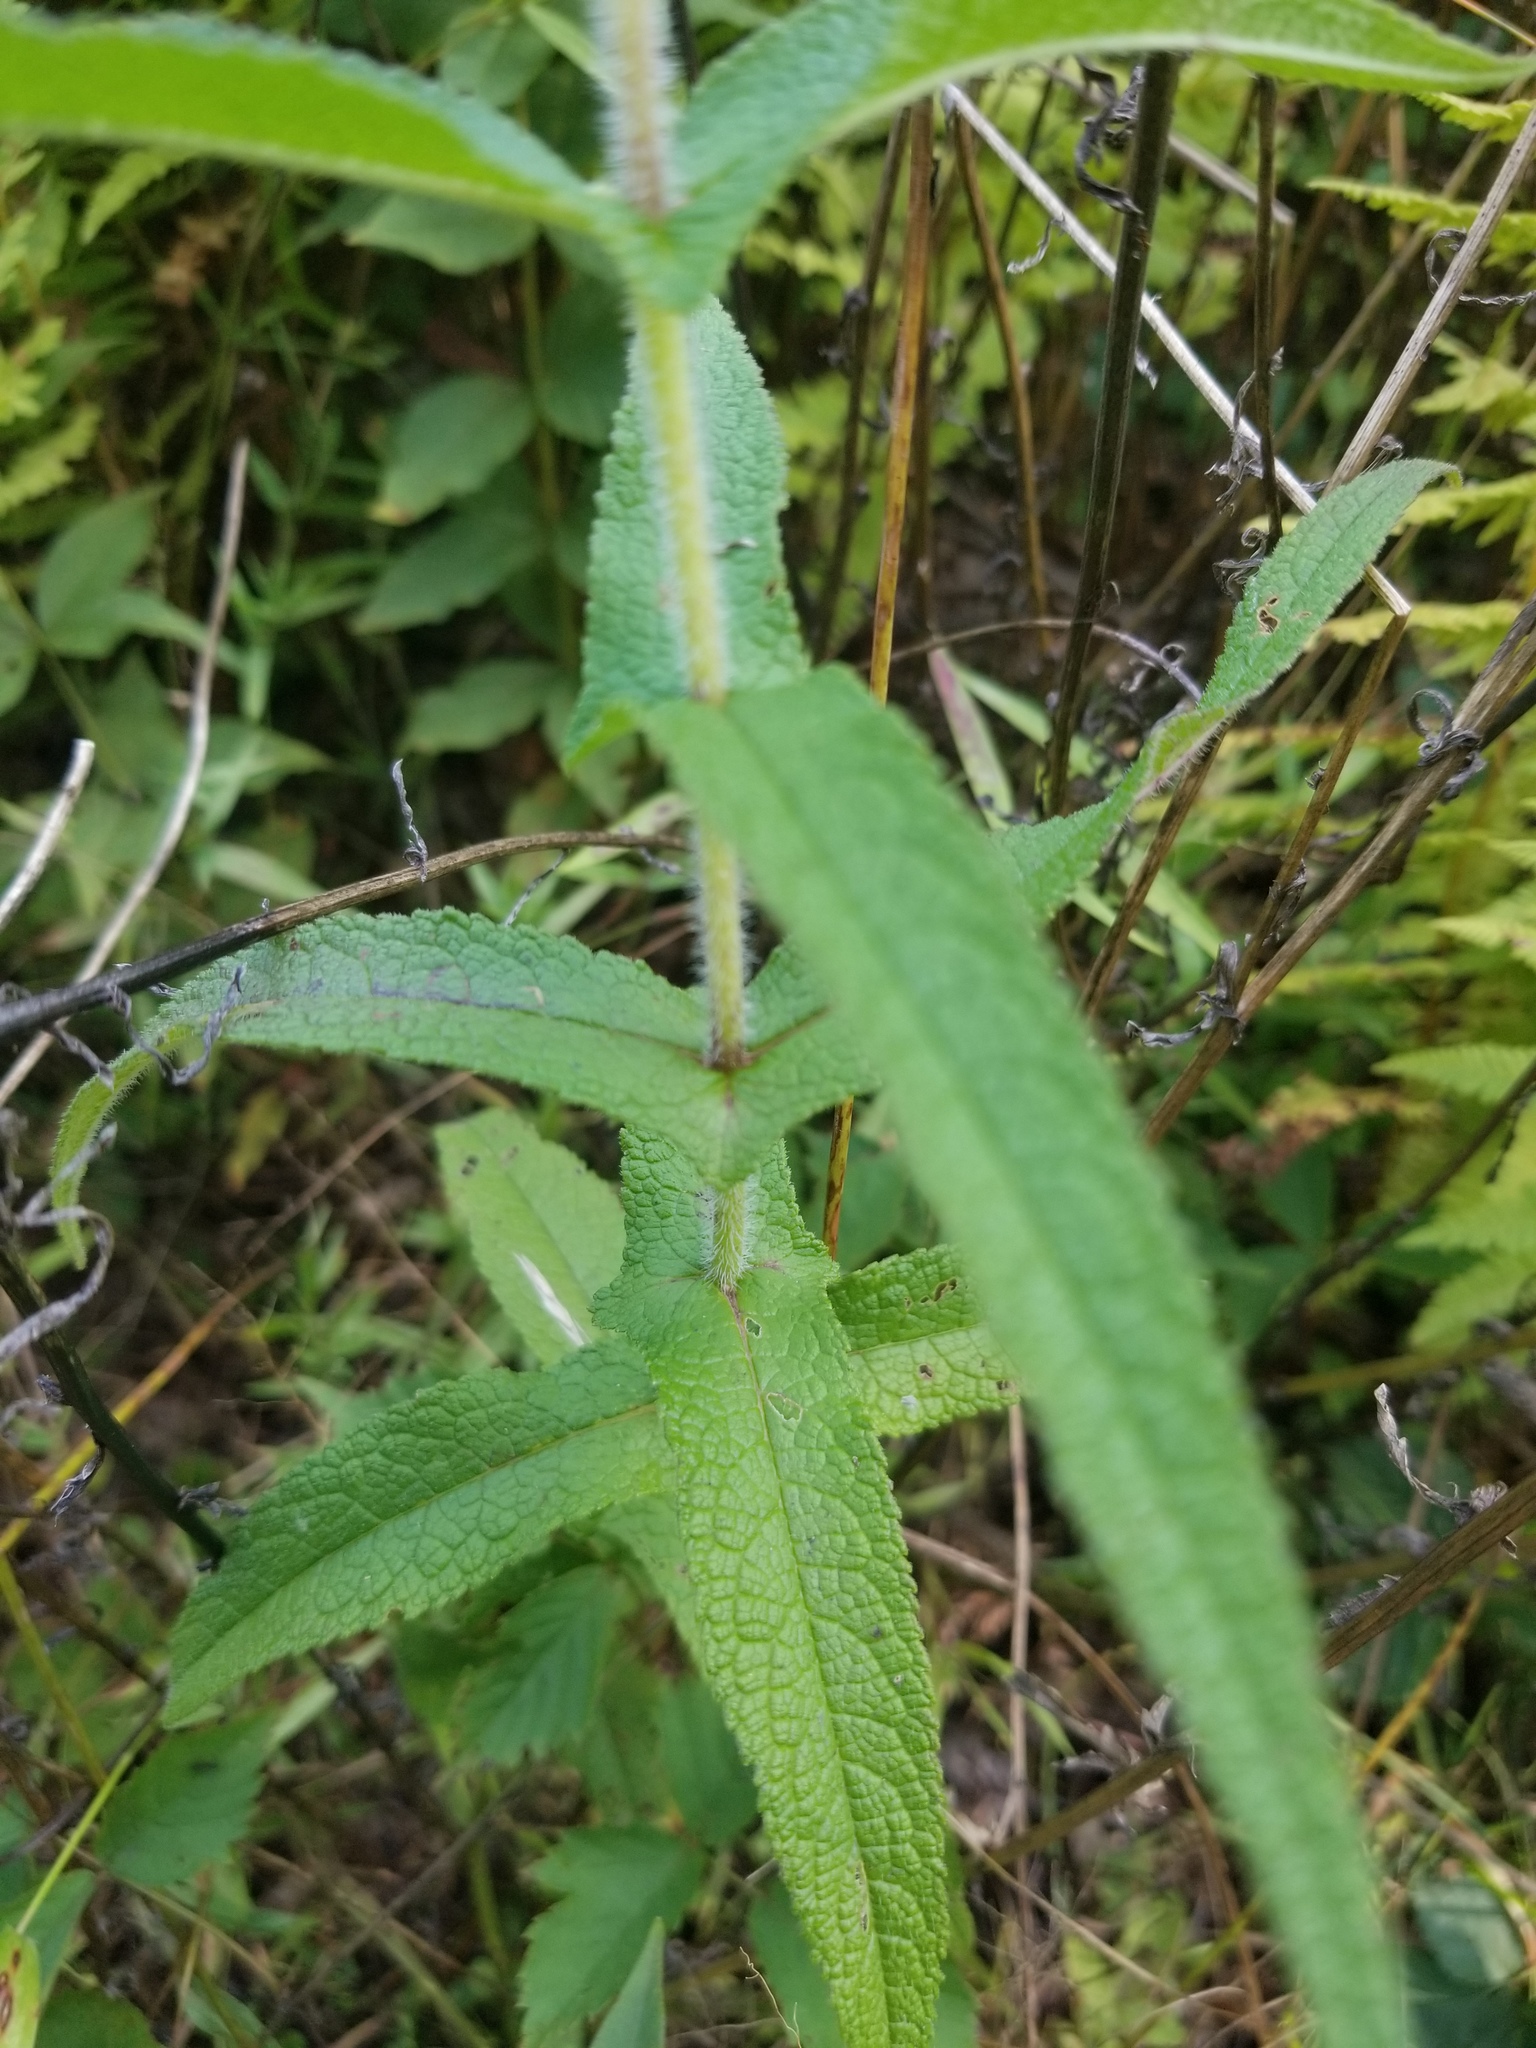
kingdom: Plantae
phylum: Tracheophyta
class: Magnoliopsida
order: Asterales
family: Asteraceae
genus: Eupatorium
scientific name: Eupatorium perfoliatum
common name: Boneset
